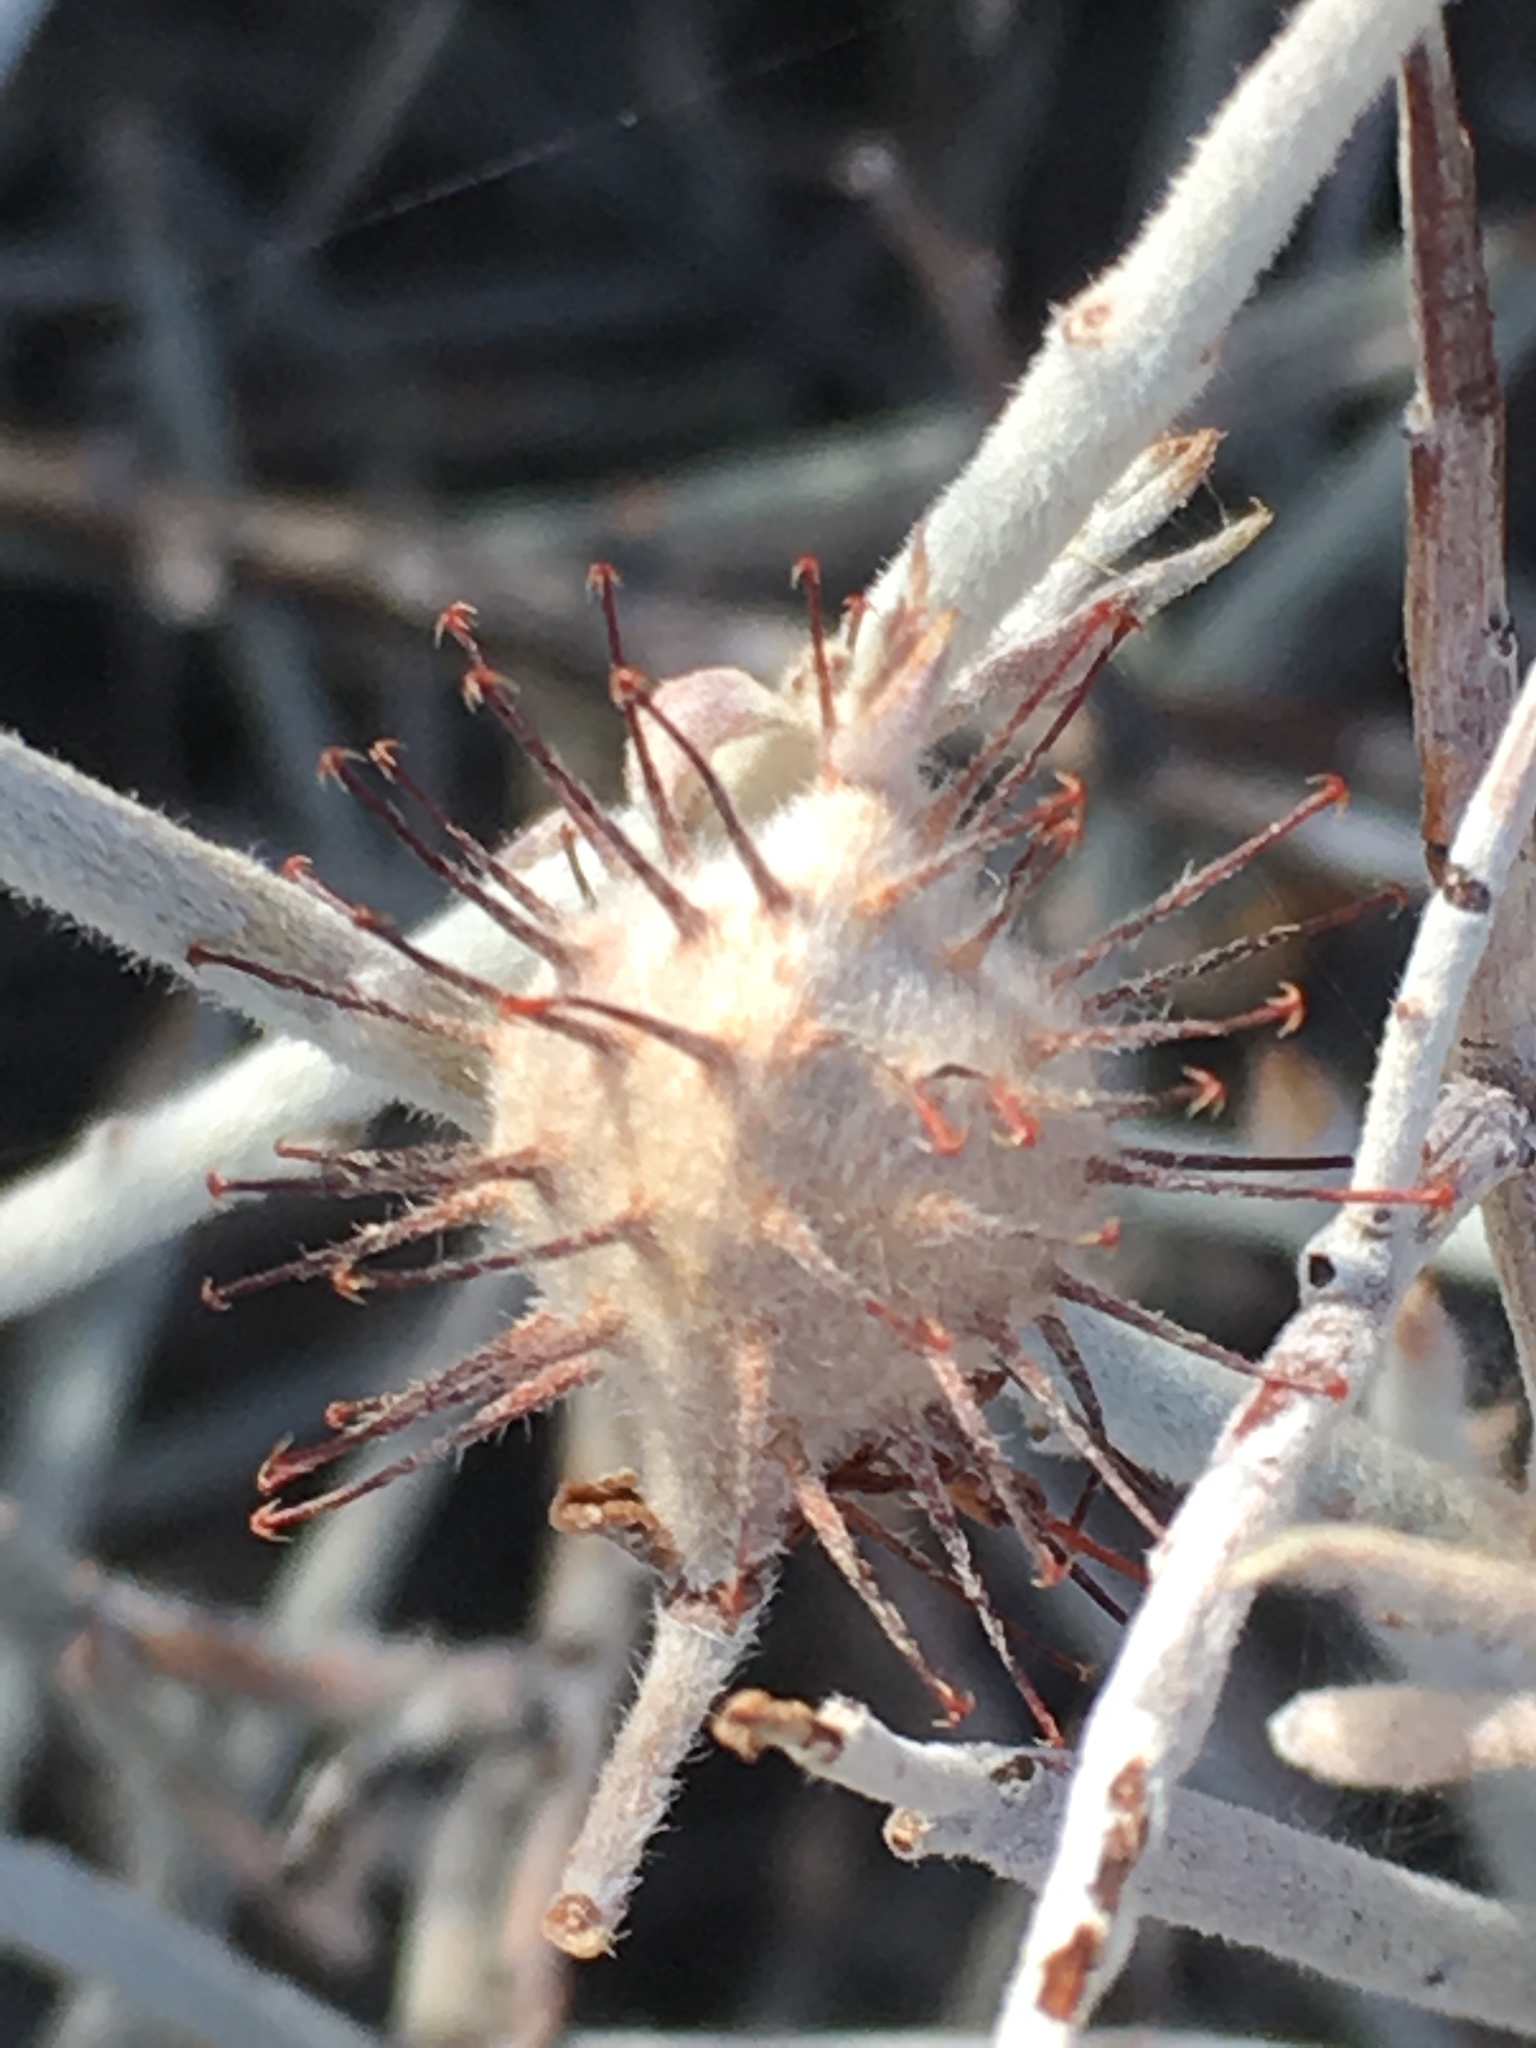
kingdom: Plantae
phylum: Tracheophyta
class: Magnoliopsida
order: Zygophyllales
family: Krameriaceae
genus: Krameria
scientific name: Krameria bicolor
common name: White ratany
